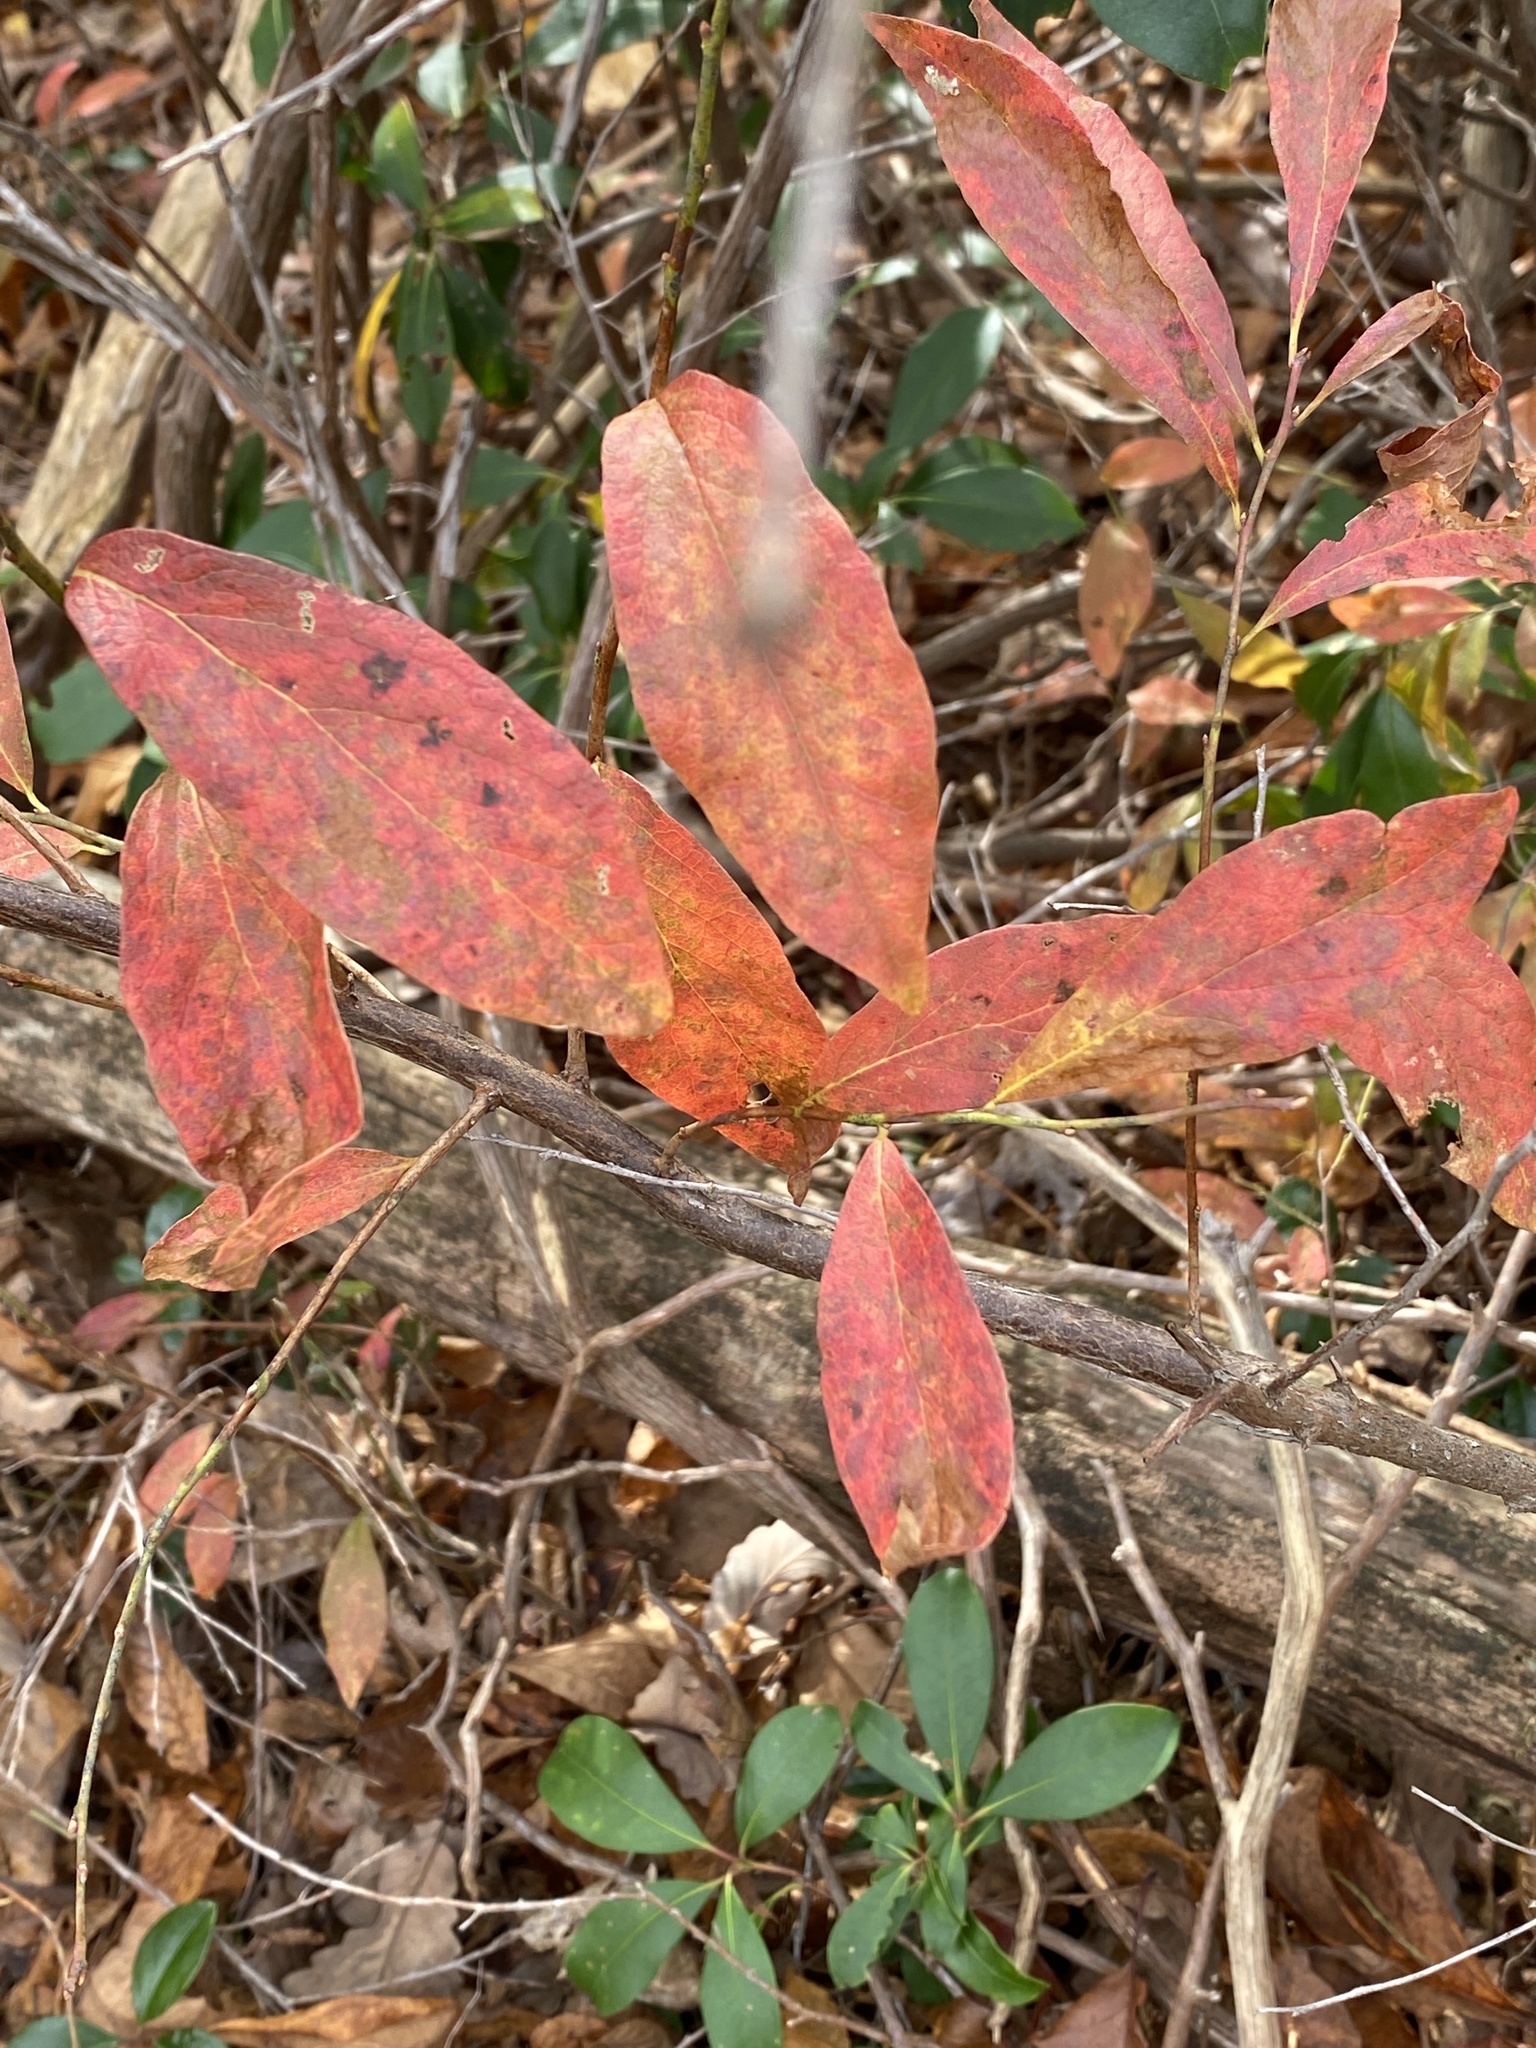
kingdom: Plantae
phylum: Tracheophyta
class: Magnoliopsida
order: Ericales
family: Ericaceae
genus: Gaylussacia
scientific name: Gaylussacia baccata
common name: Black huckleberry
